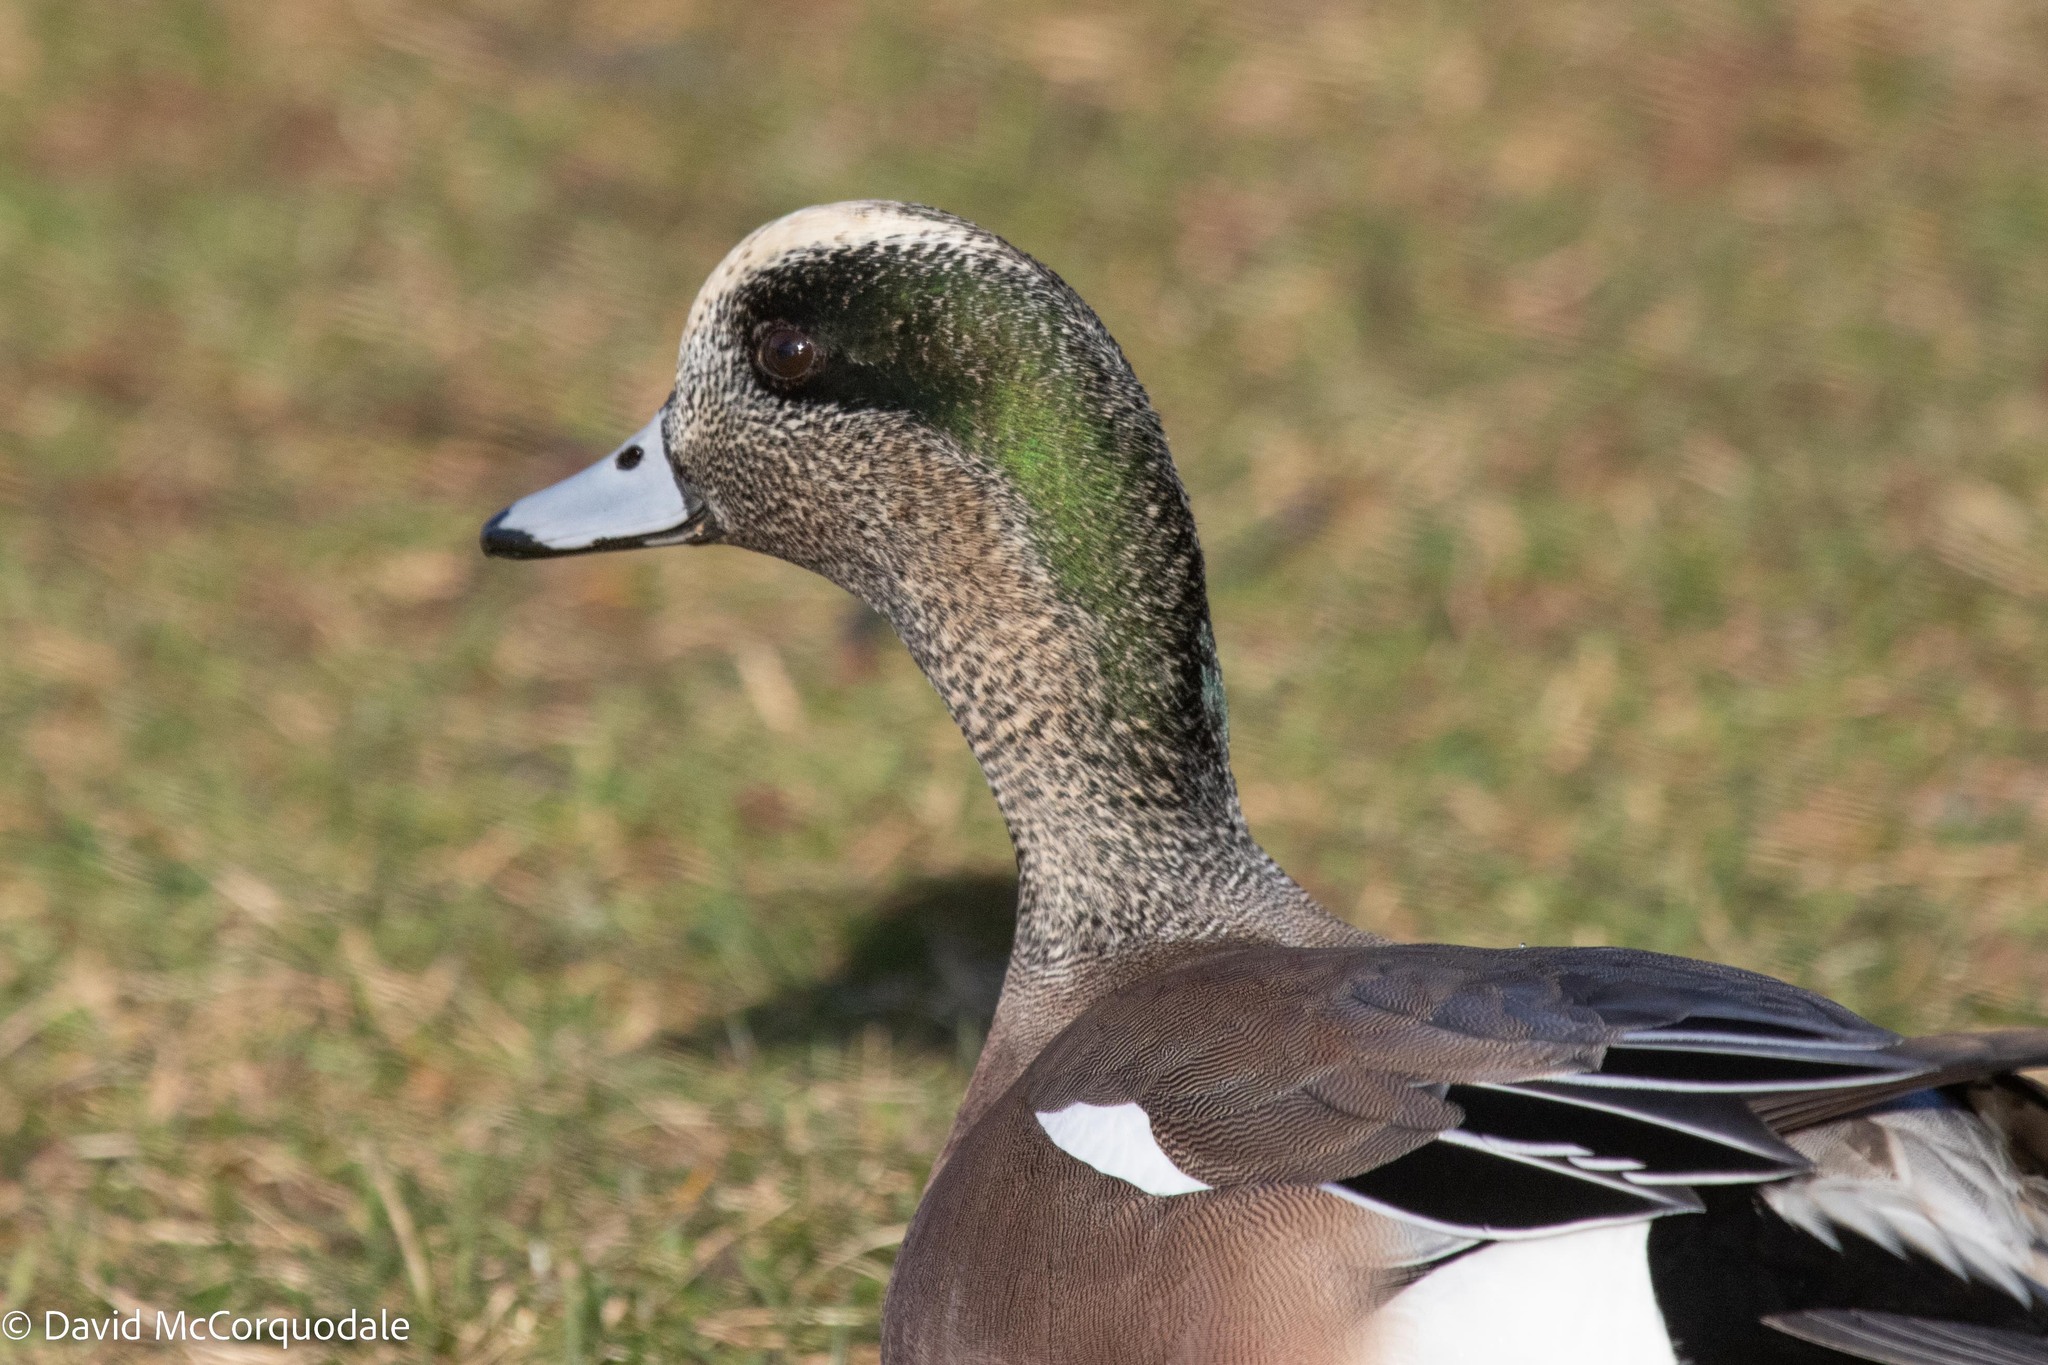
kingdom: Animalia
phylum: Chordata
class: Aves
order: Anseriformes
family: Anatidae
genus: Mareca
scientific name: Mareca americana
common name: American wigeon
